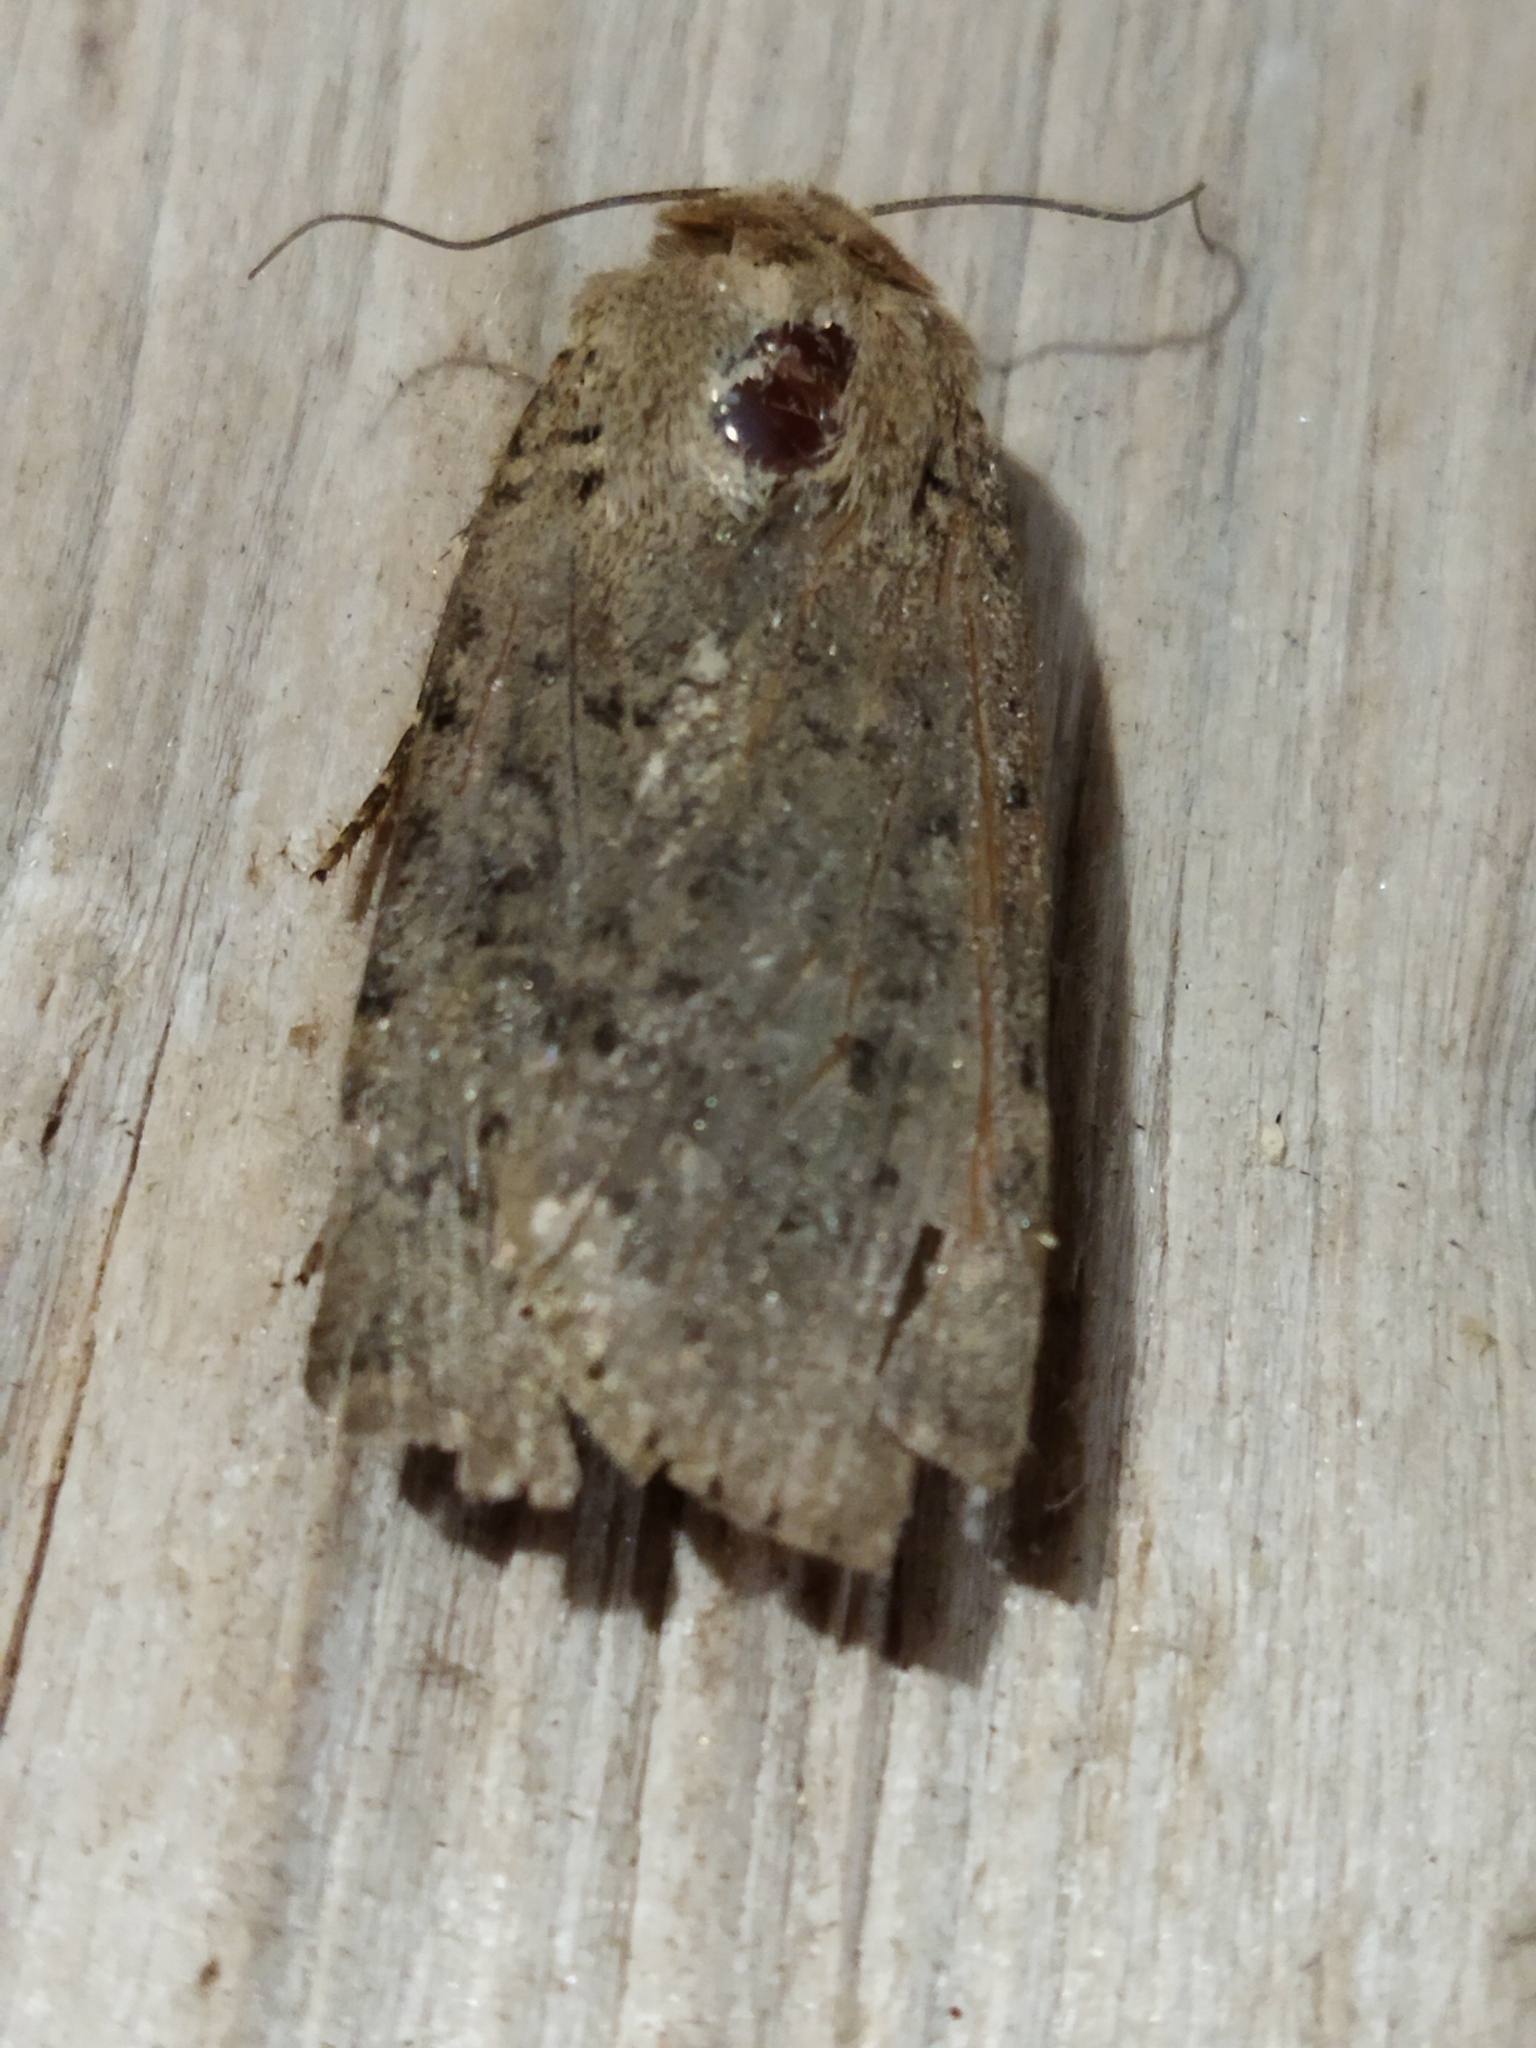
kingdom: Animalia
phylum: Arthropoda
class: Insecta
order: Lepidoptera
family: Noctuidae
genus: Rhyacia
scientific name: Rhyacia simulans
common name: Dotted rustic
